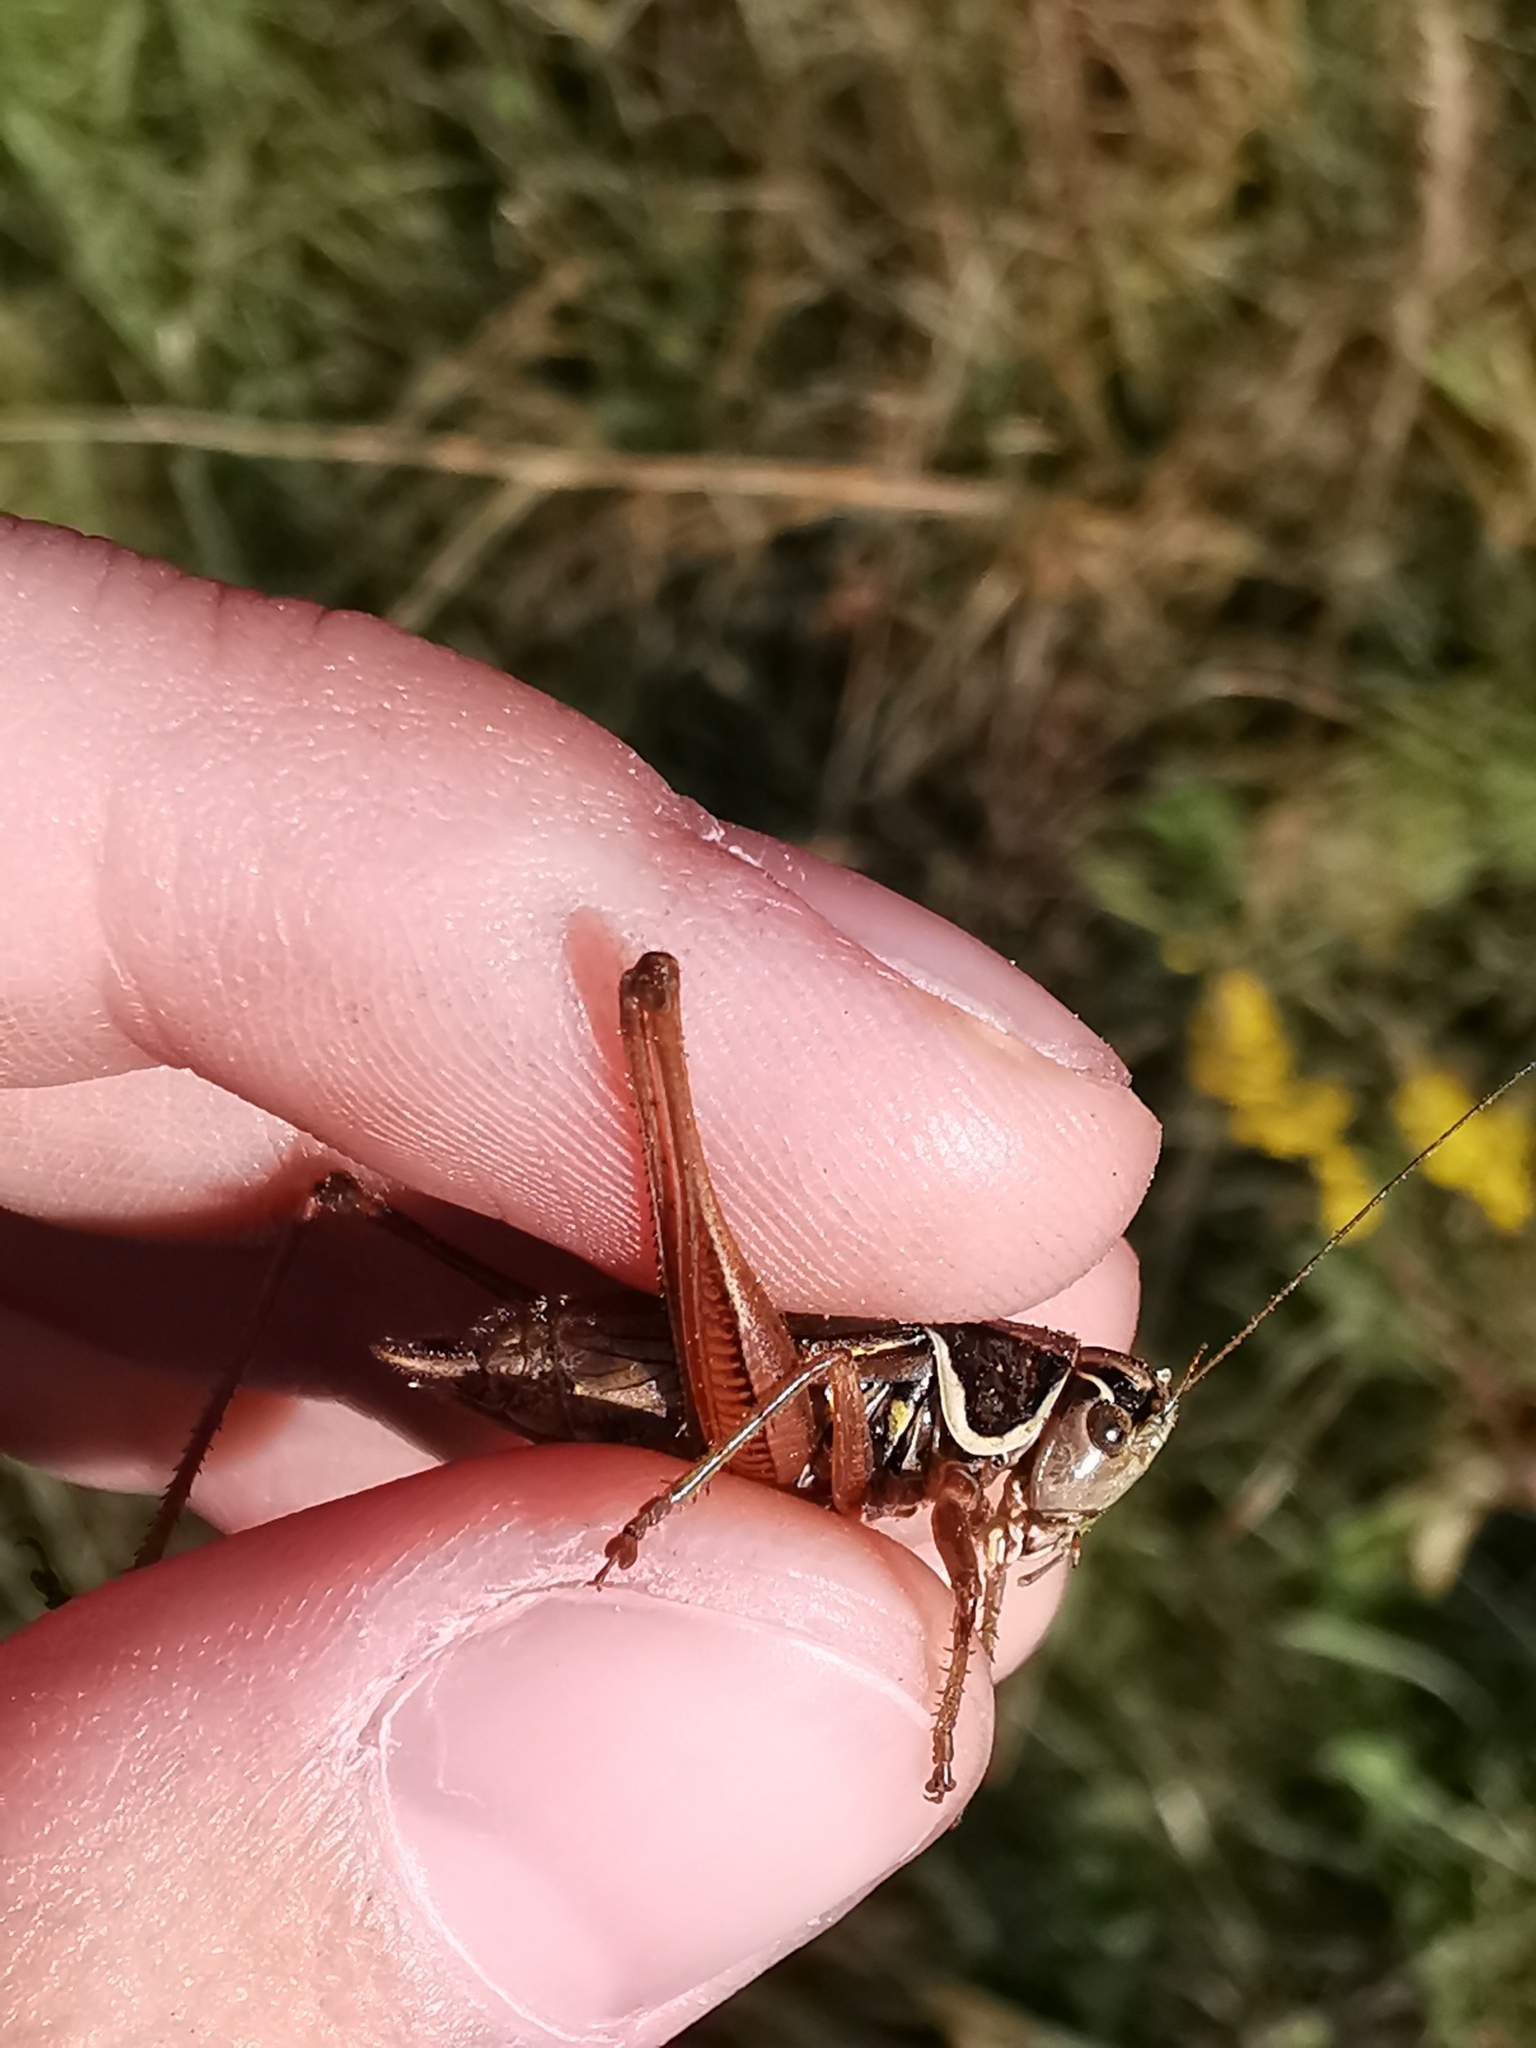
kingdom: Animalia
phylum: Arthropoda
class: Insecta
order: Orthoptera
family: Tettigoniidae
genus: Roeseliana
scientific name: Roeseliana roeselii
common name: Roesel's bush cricket
